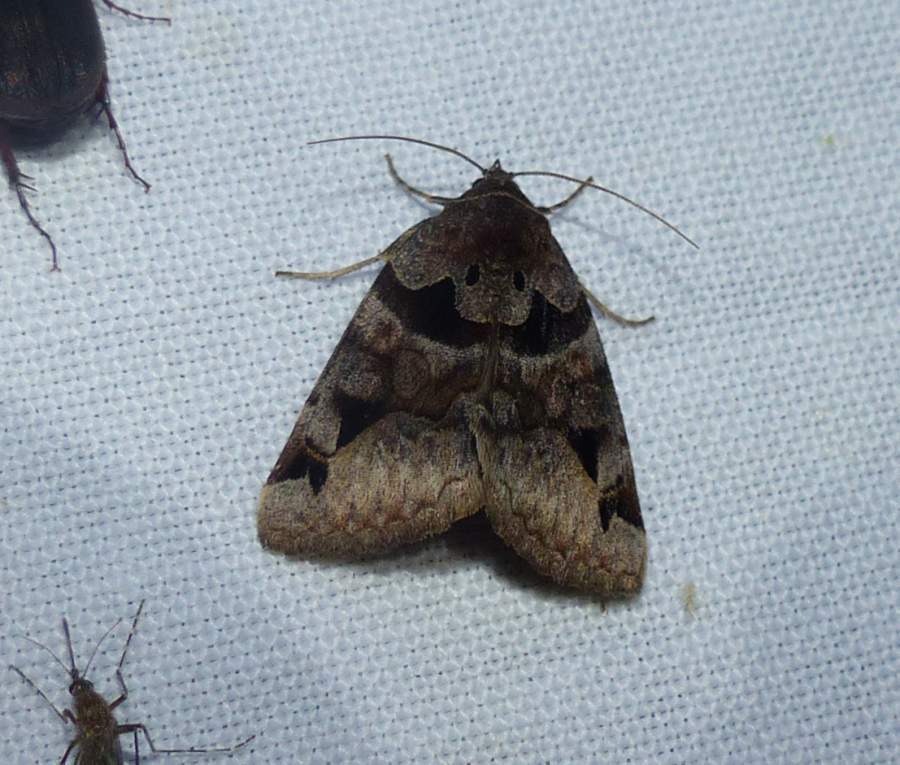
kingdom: Animalia
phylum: Arthropoda
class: Insecta
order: Lepidoptera
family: Erebidae
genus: Euclidia
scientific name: Euclidia cuspidea
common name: Toothed somberwing
